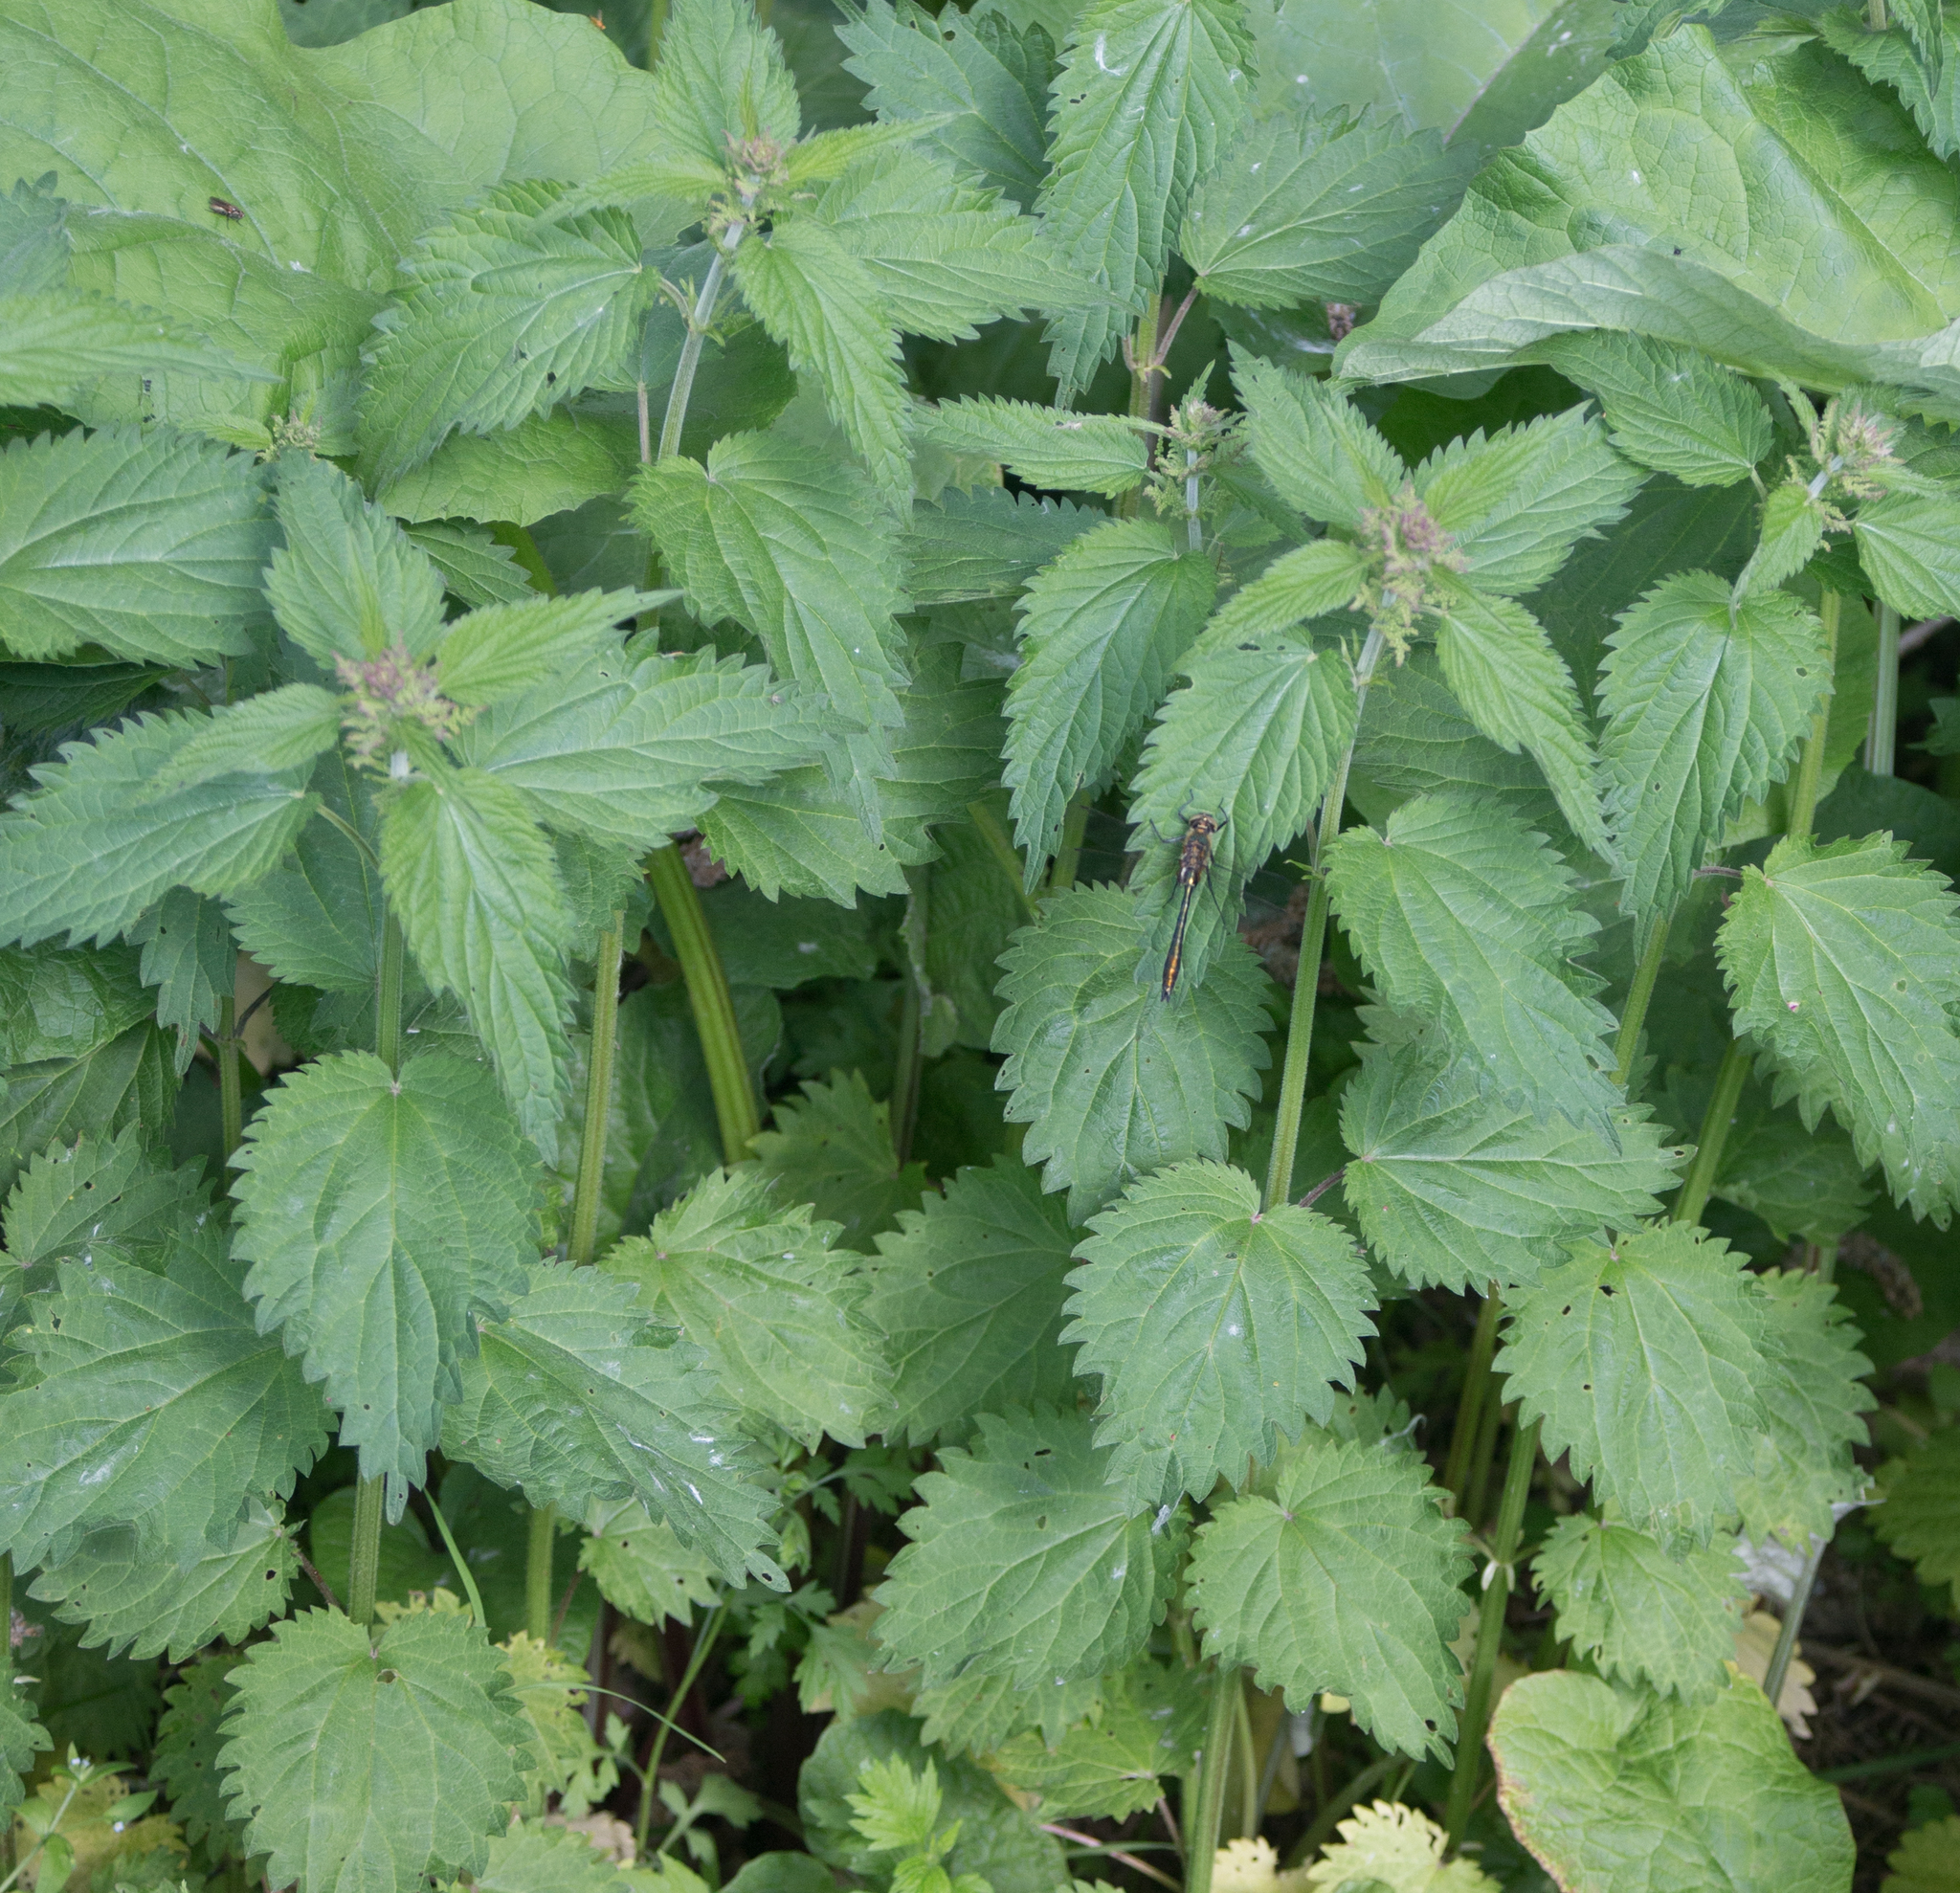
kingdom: Plantae
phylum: Tracheophyta
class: Magnoliopsida
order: Rosales
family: Urticaceae
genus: Urtica
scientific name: Urtica dioica
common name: Common nettle
